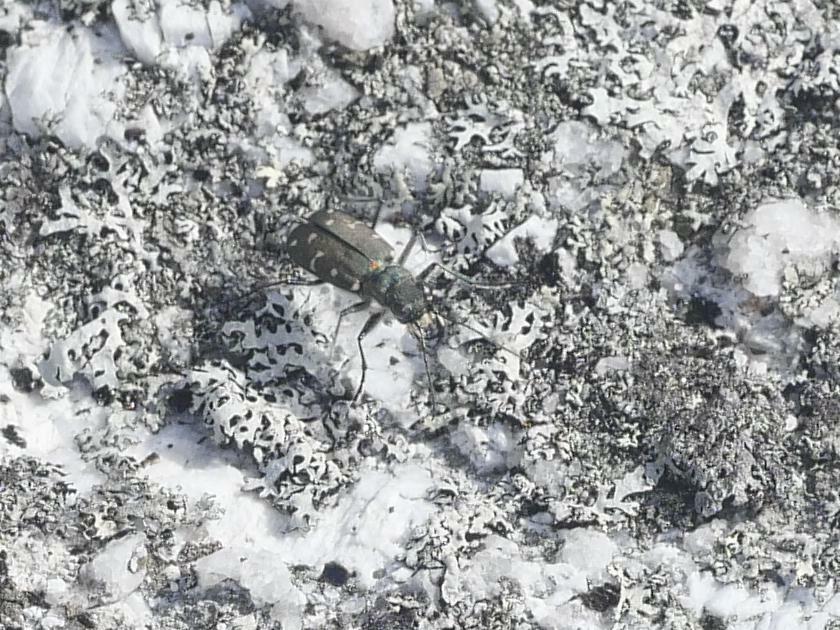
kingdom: Animalia
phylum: Arthropoda
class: Insecta
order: Coleoptera
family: Carabidae
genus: Cicindela
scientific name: Cicindela duodecimguttata
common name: Twelve-spotted tiger beetle
